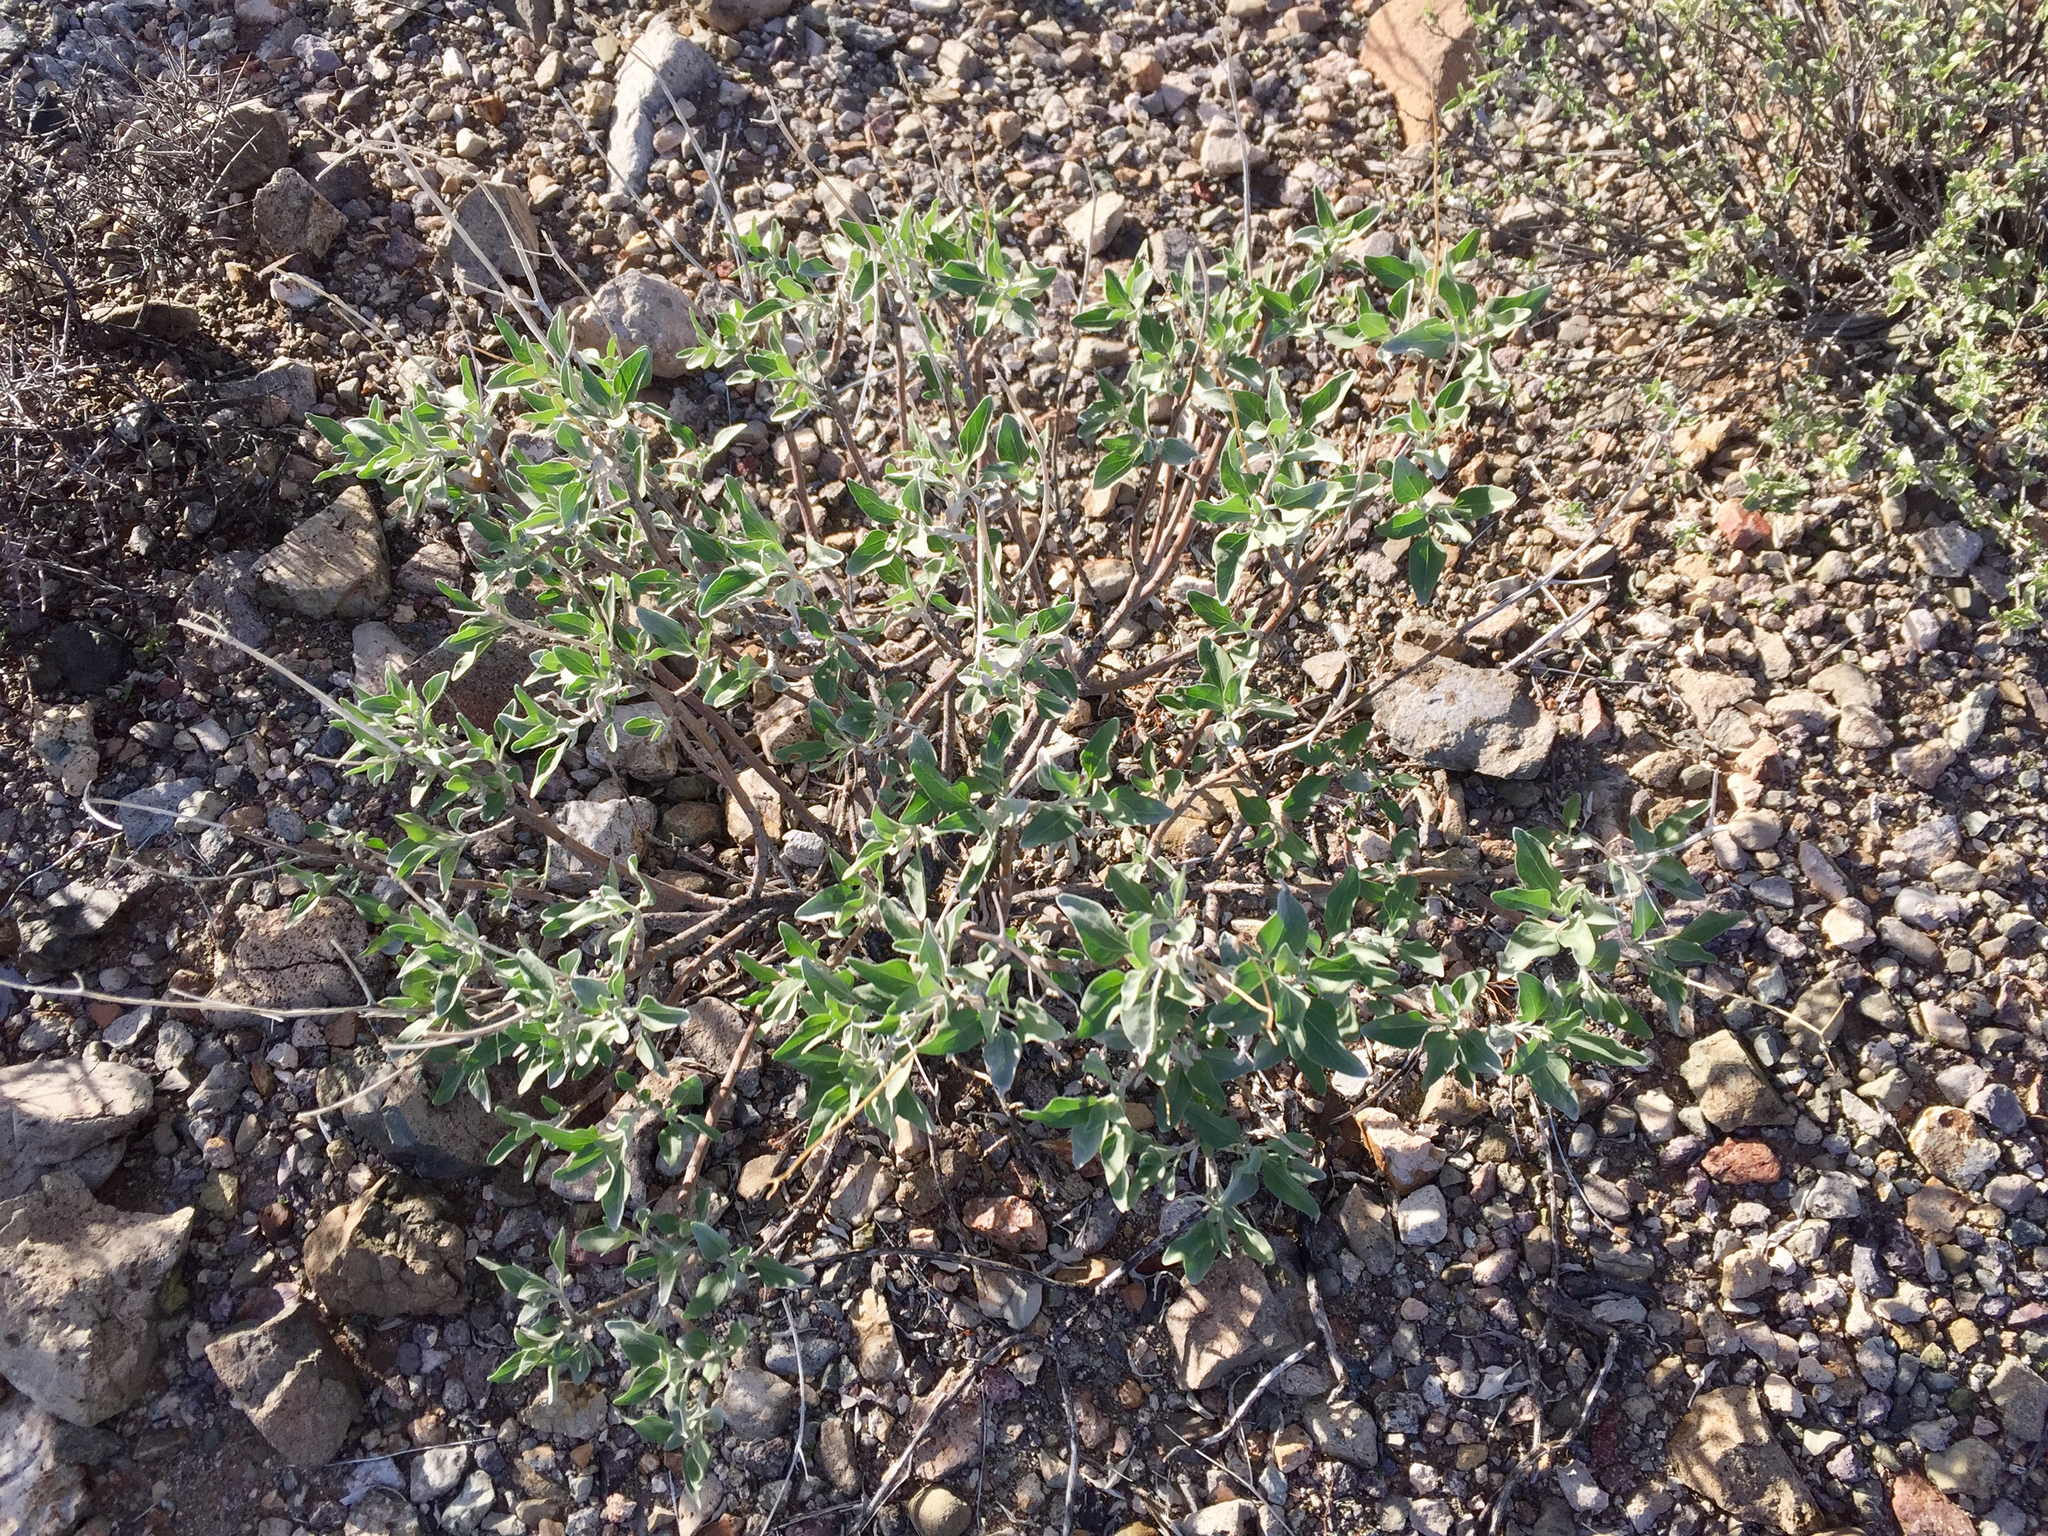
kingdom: Plantae
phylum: Tracheophyta
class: Magnoliopsida
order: Asterales
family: Asteraceae
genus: Encelia
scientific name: Encelia farinosa
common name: Brittlebush
